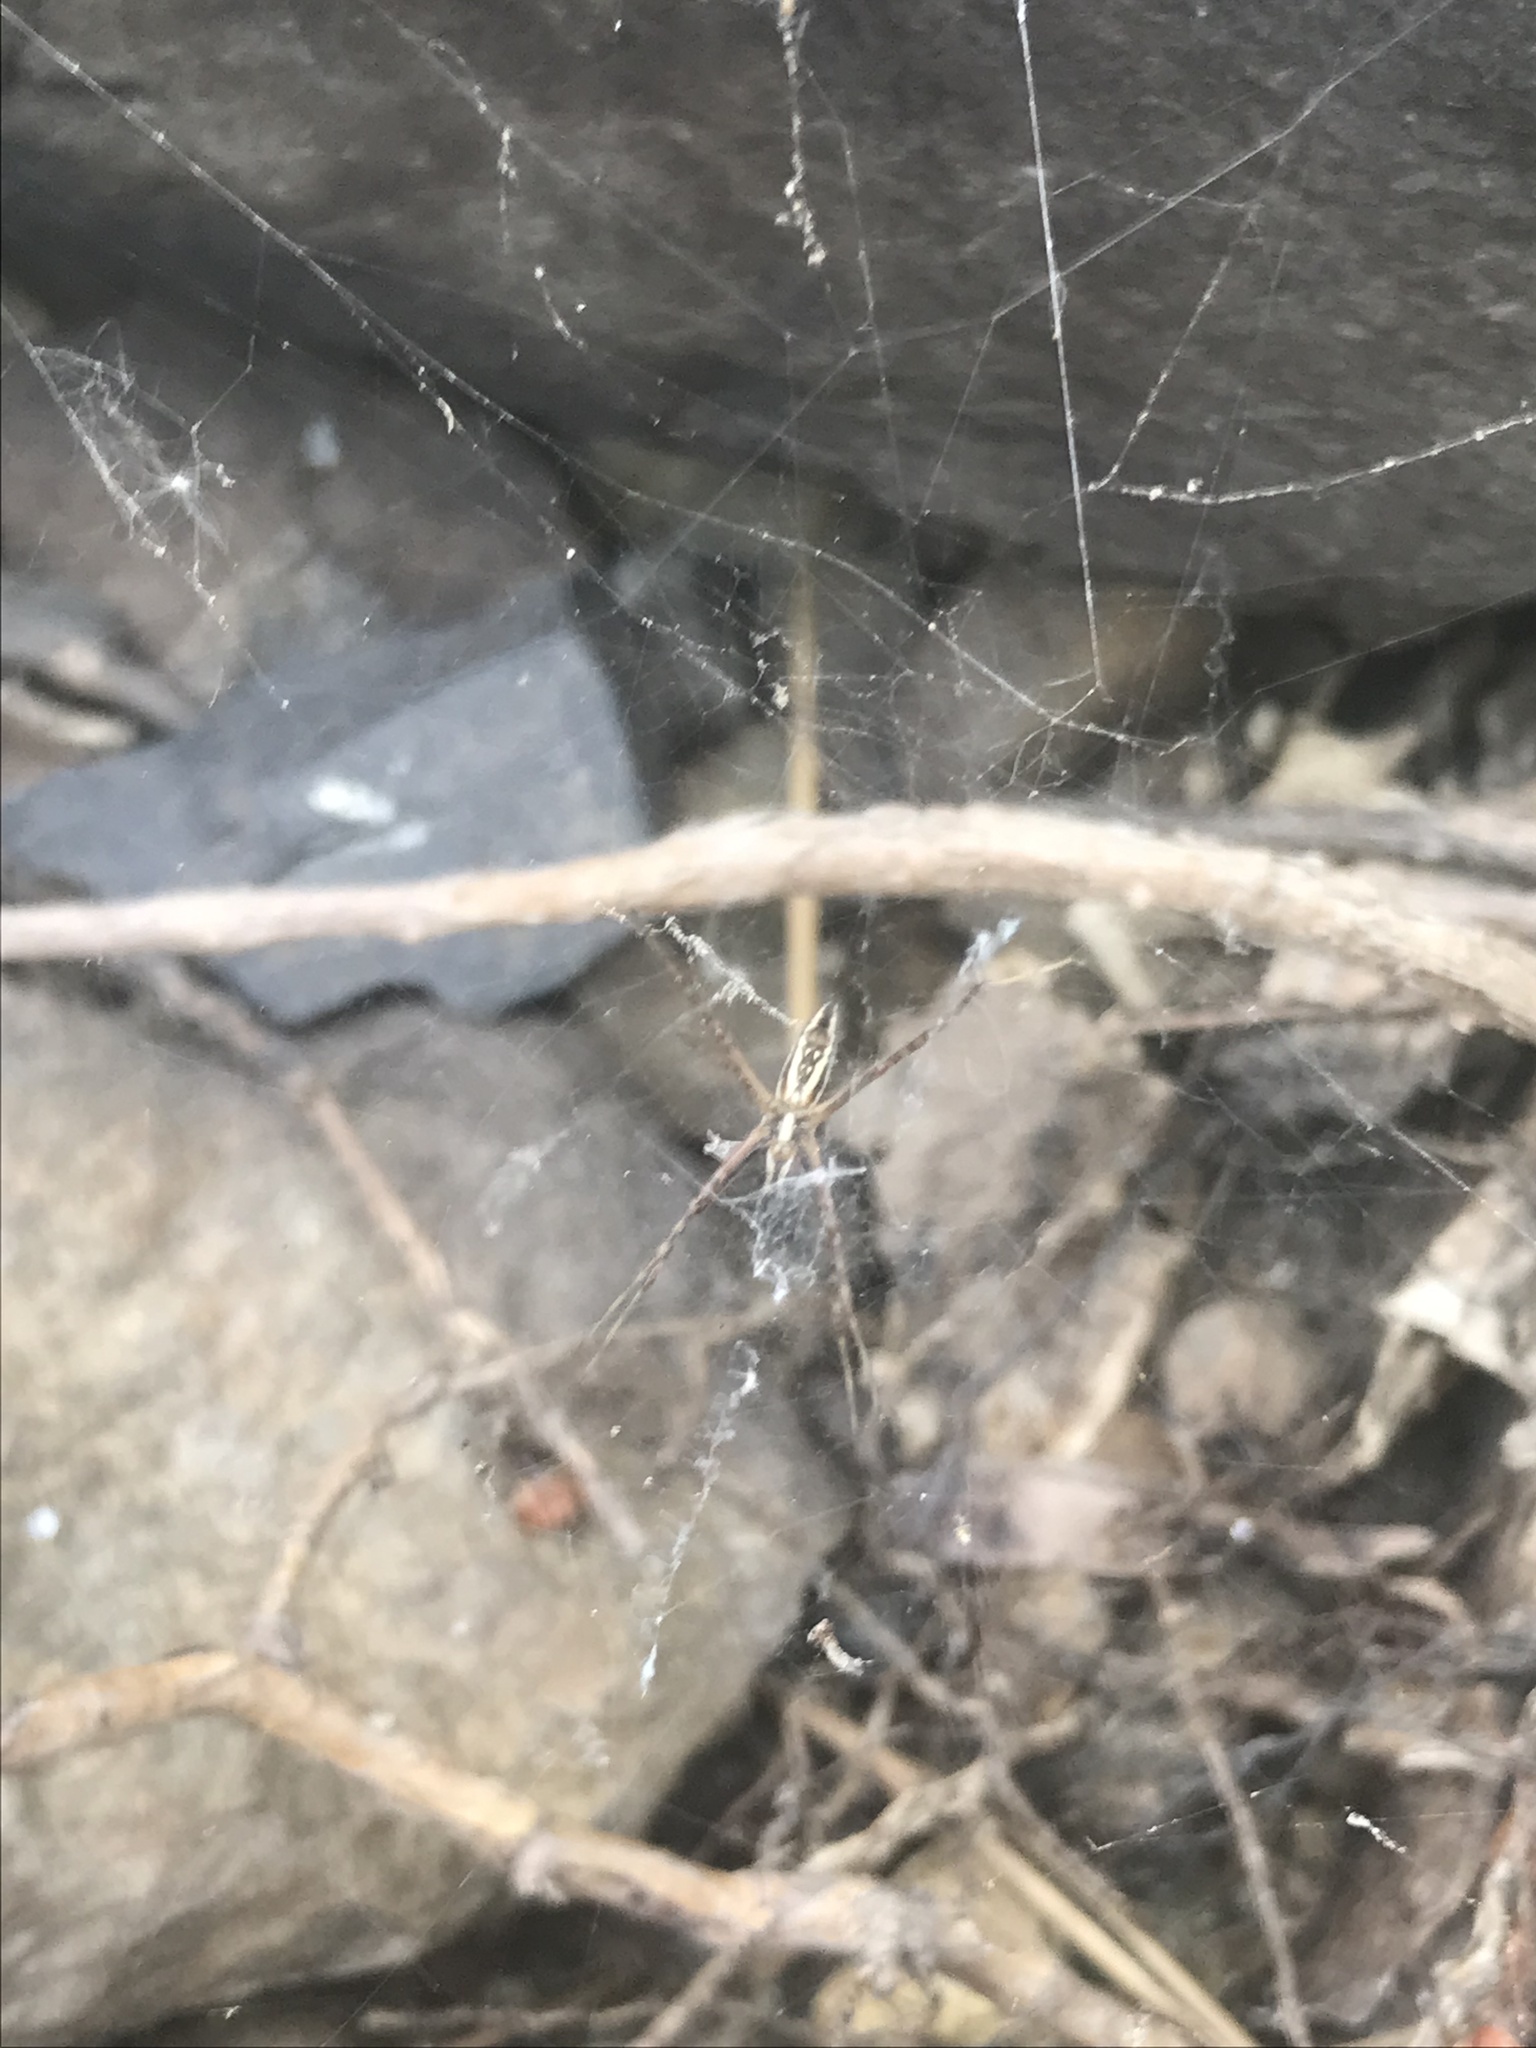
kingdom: Animalia
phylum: Arthropoda
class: Arachnida
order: Araneae
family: Araneidae
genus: Argiope
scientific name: Argiope trifasciata
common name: Banded garden spider
